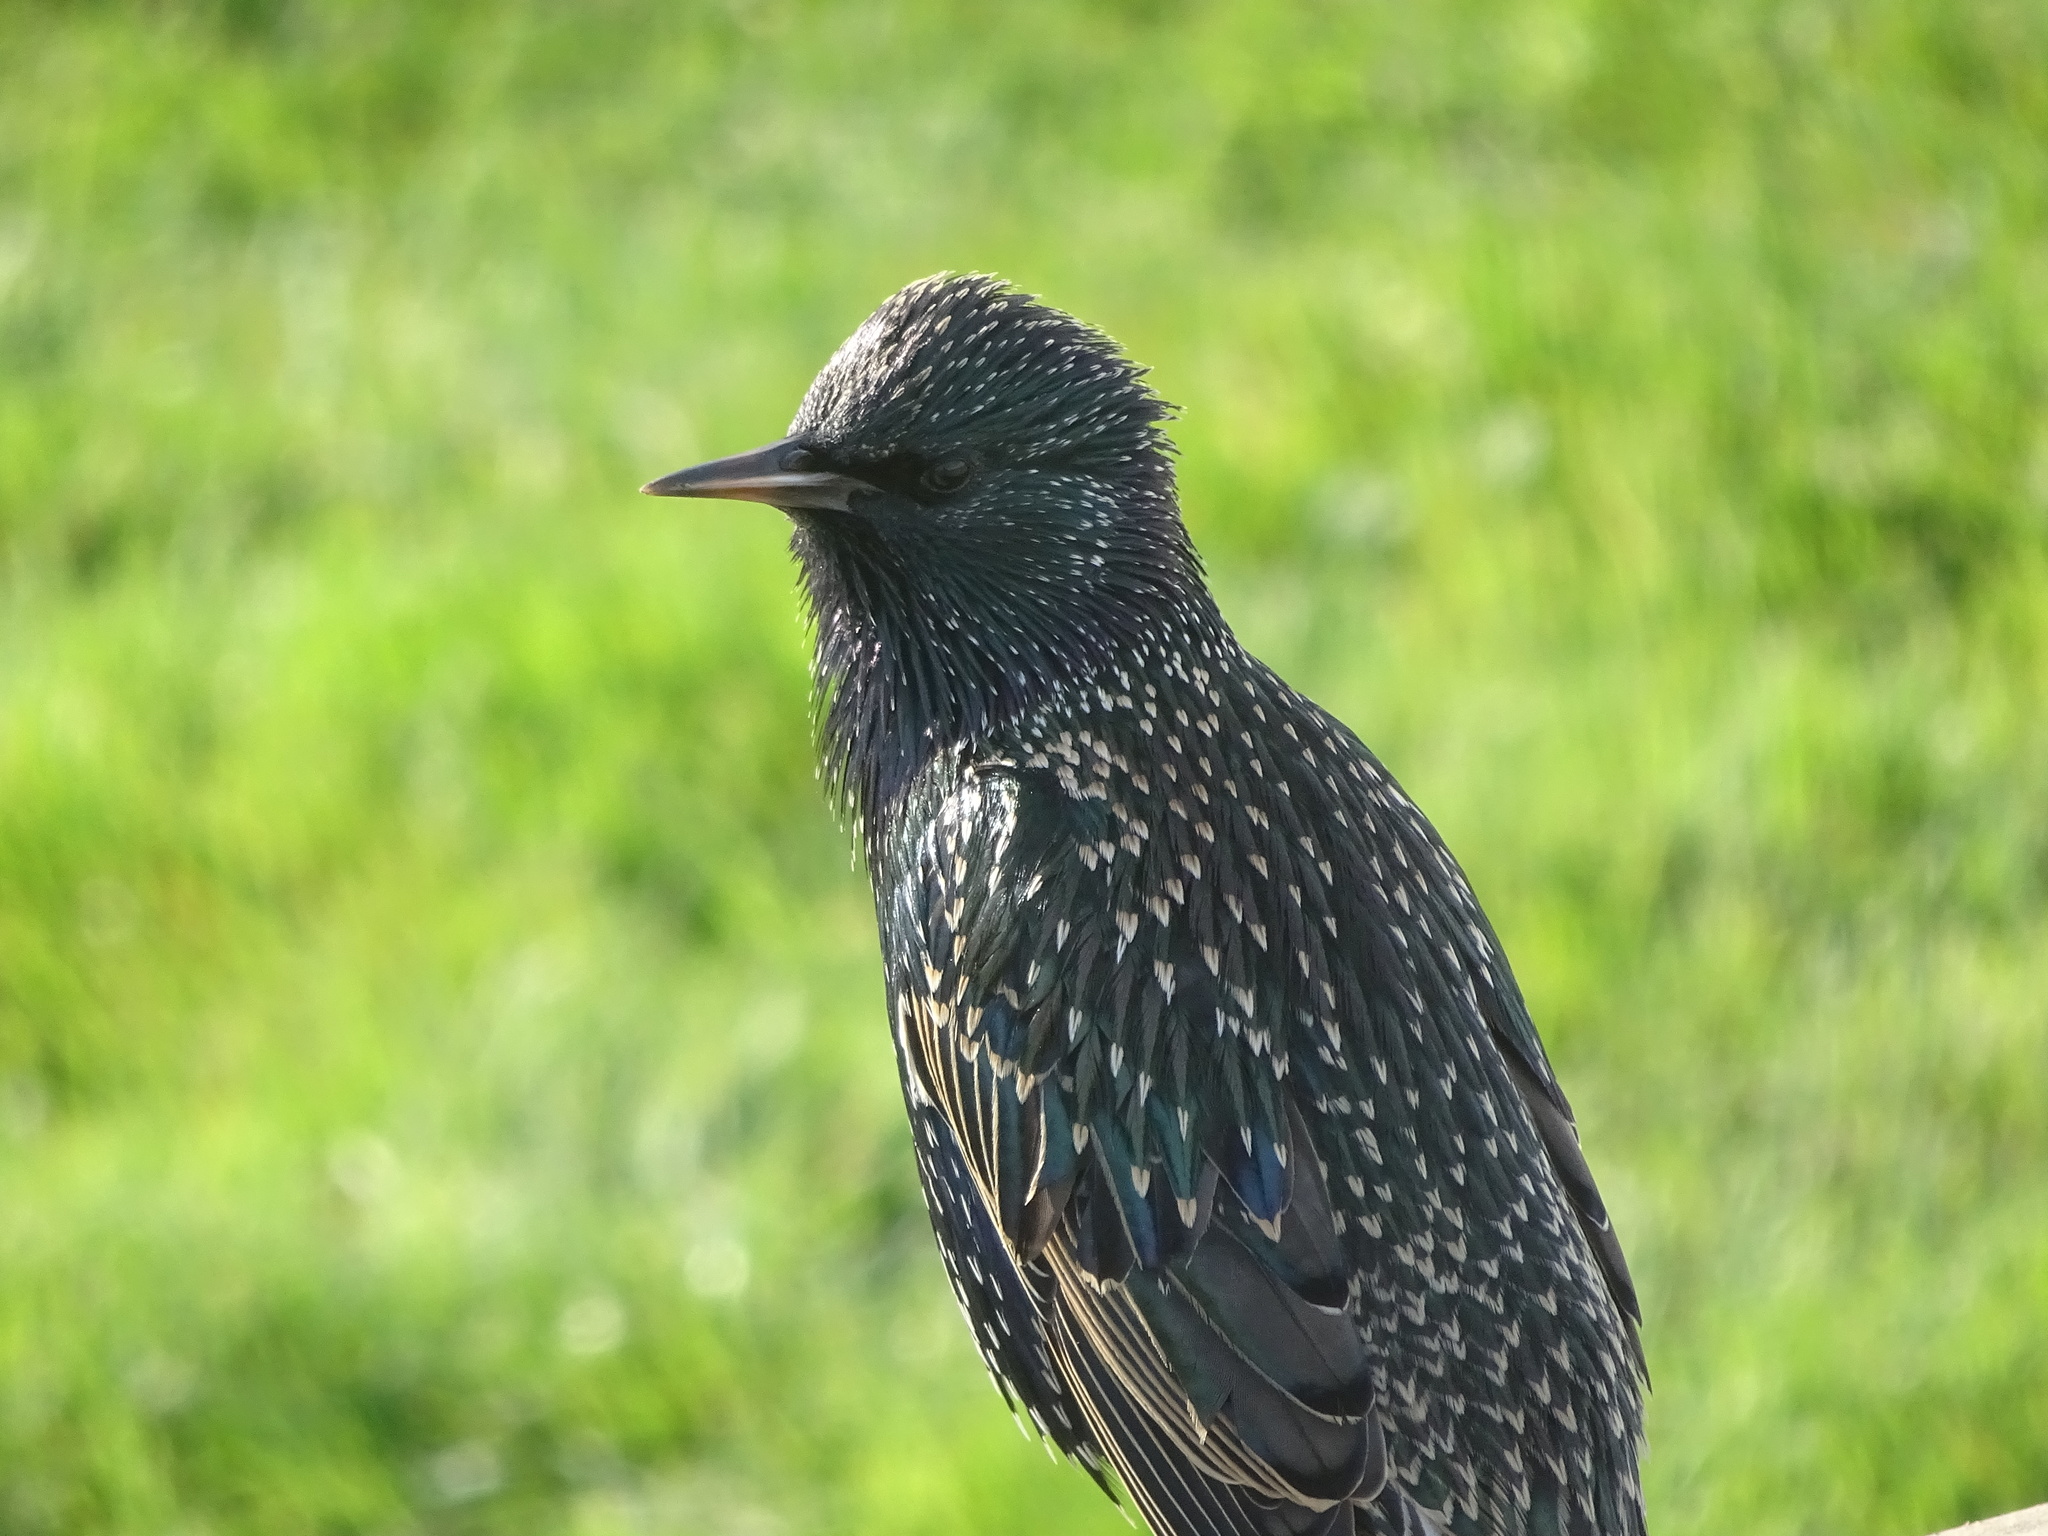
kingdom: Animalia
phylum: Chordata
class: Aves
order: Passeriformes
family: Sturnidae
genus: Sturnus
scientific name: Sturnus vulgaris
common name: Common starling
